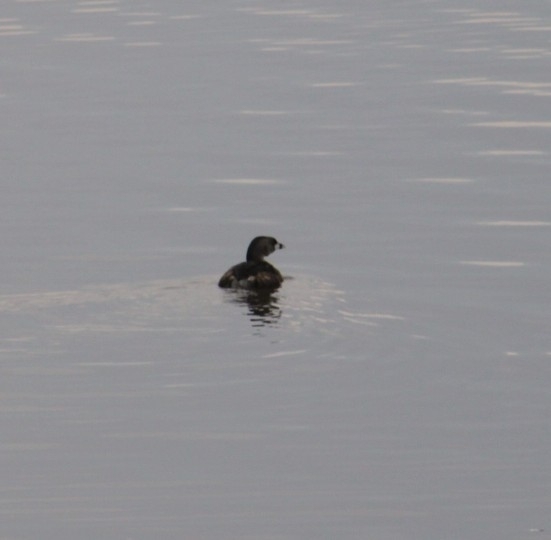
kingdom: Animalia
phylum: Chordata
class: Aves
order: Podicipediformes
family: Podicipedidae
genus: Podilymbus
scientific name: Podilymbus podiceps
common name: Pied-billed grebe
